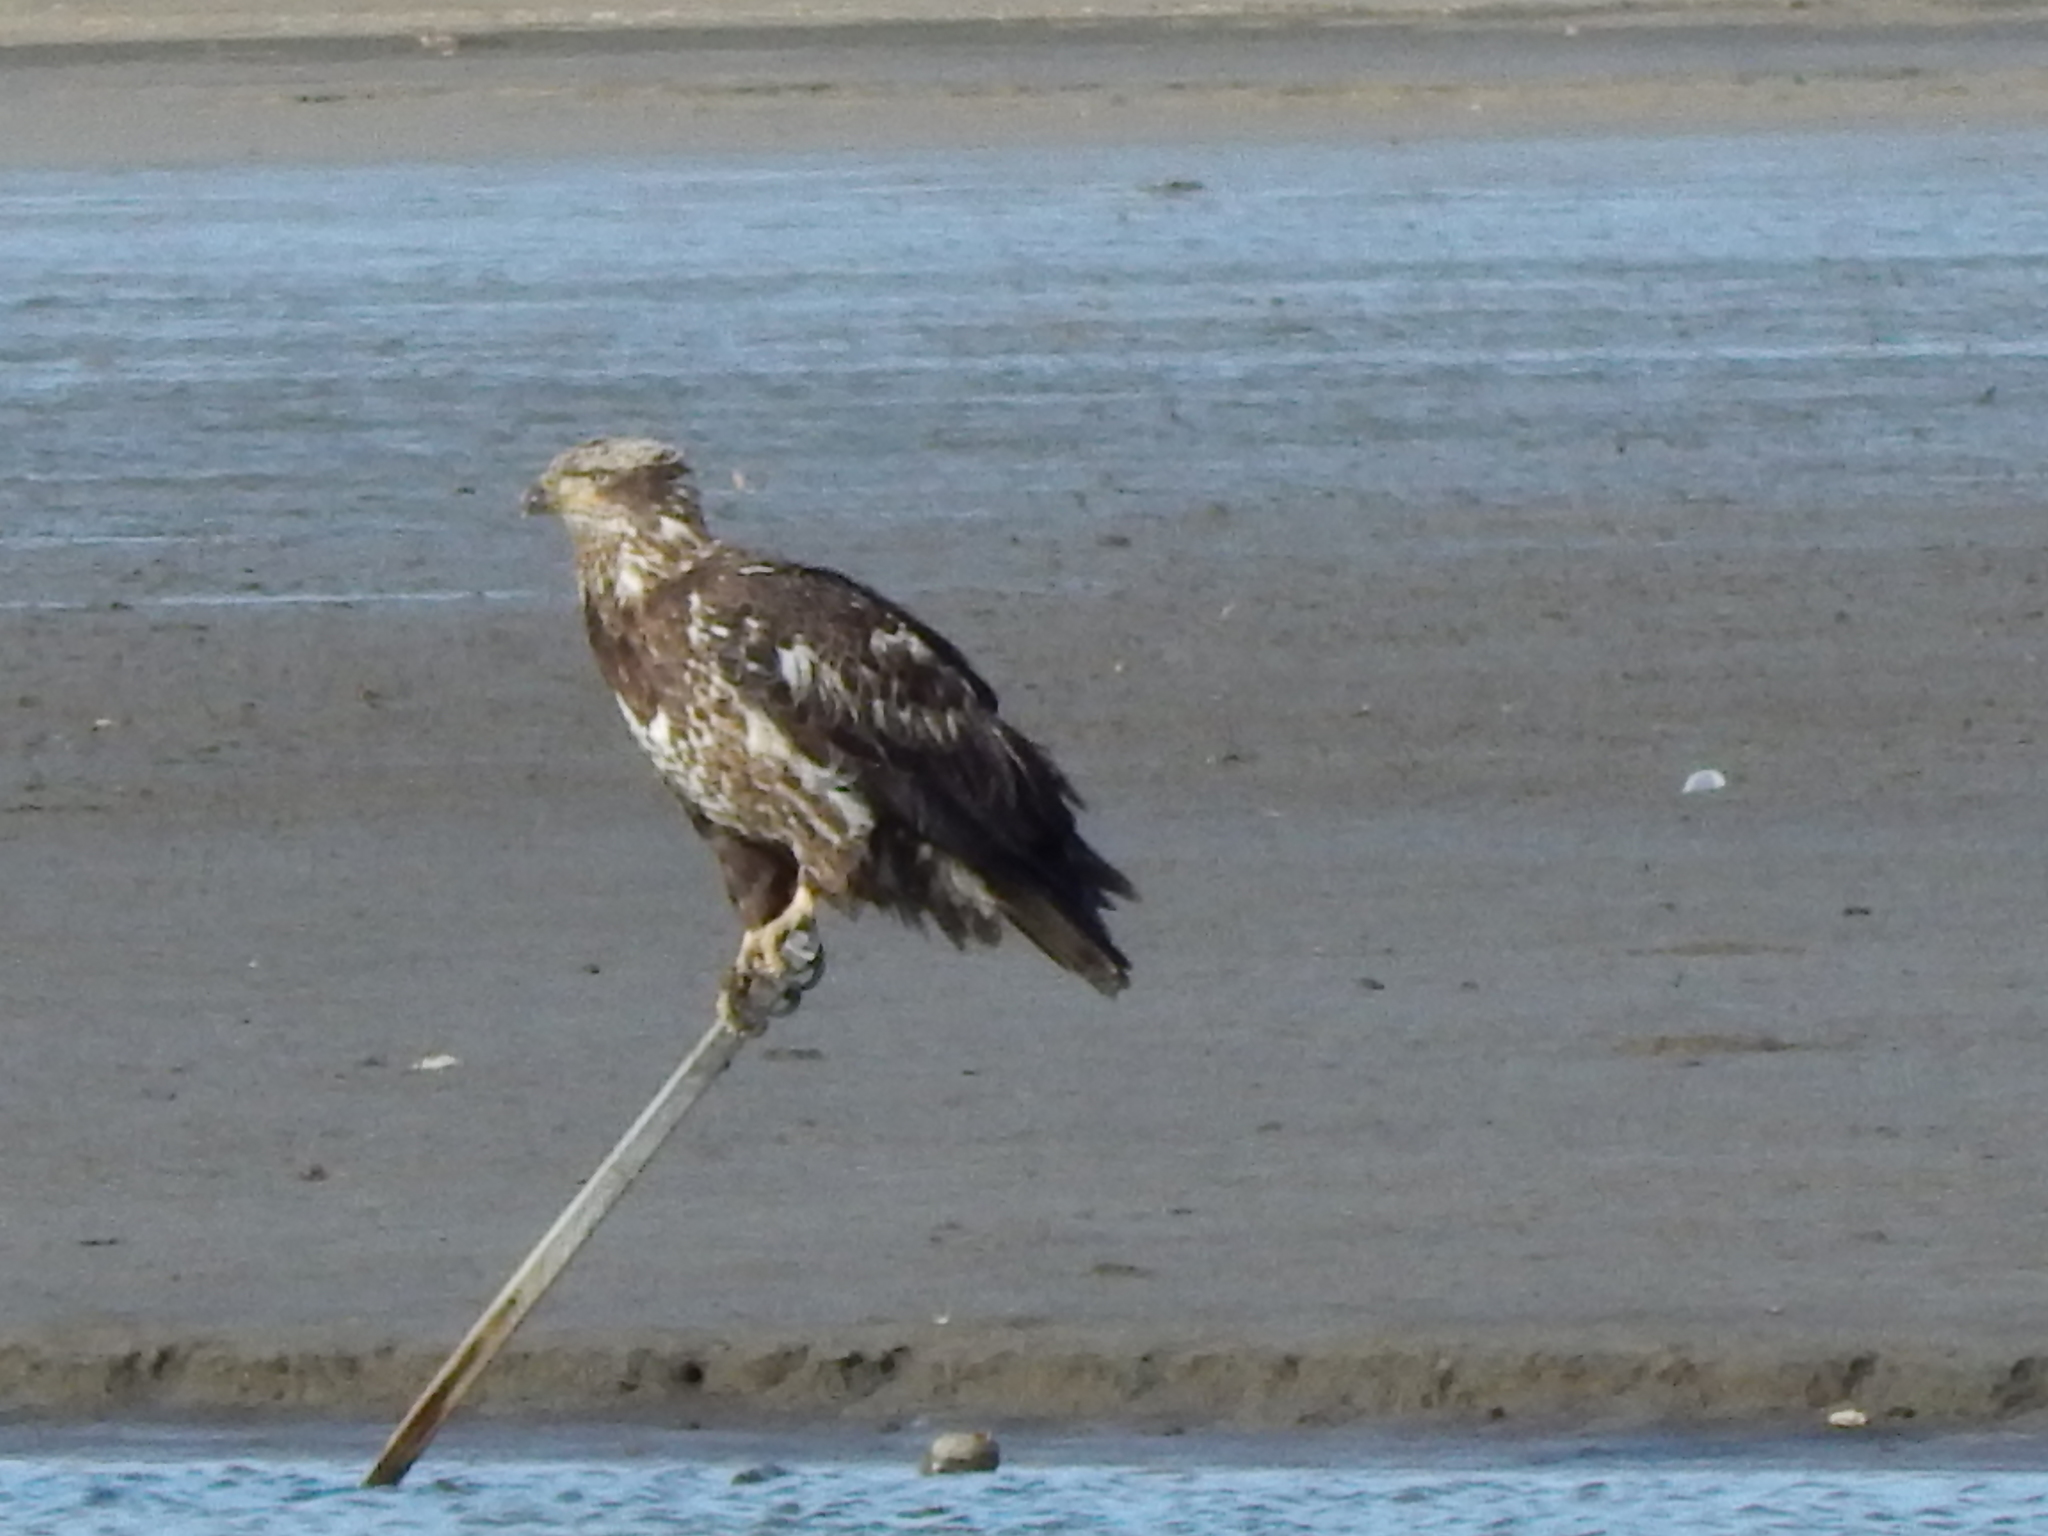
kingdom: Animalia
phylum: Chordata
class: Aves
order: Accipitriformes
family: Accipitridae
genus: Haliaeetus
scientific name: Haliaeetus leucocephalus
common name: Bald eagle
